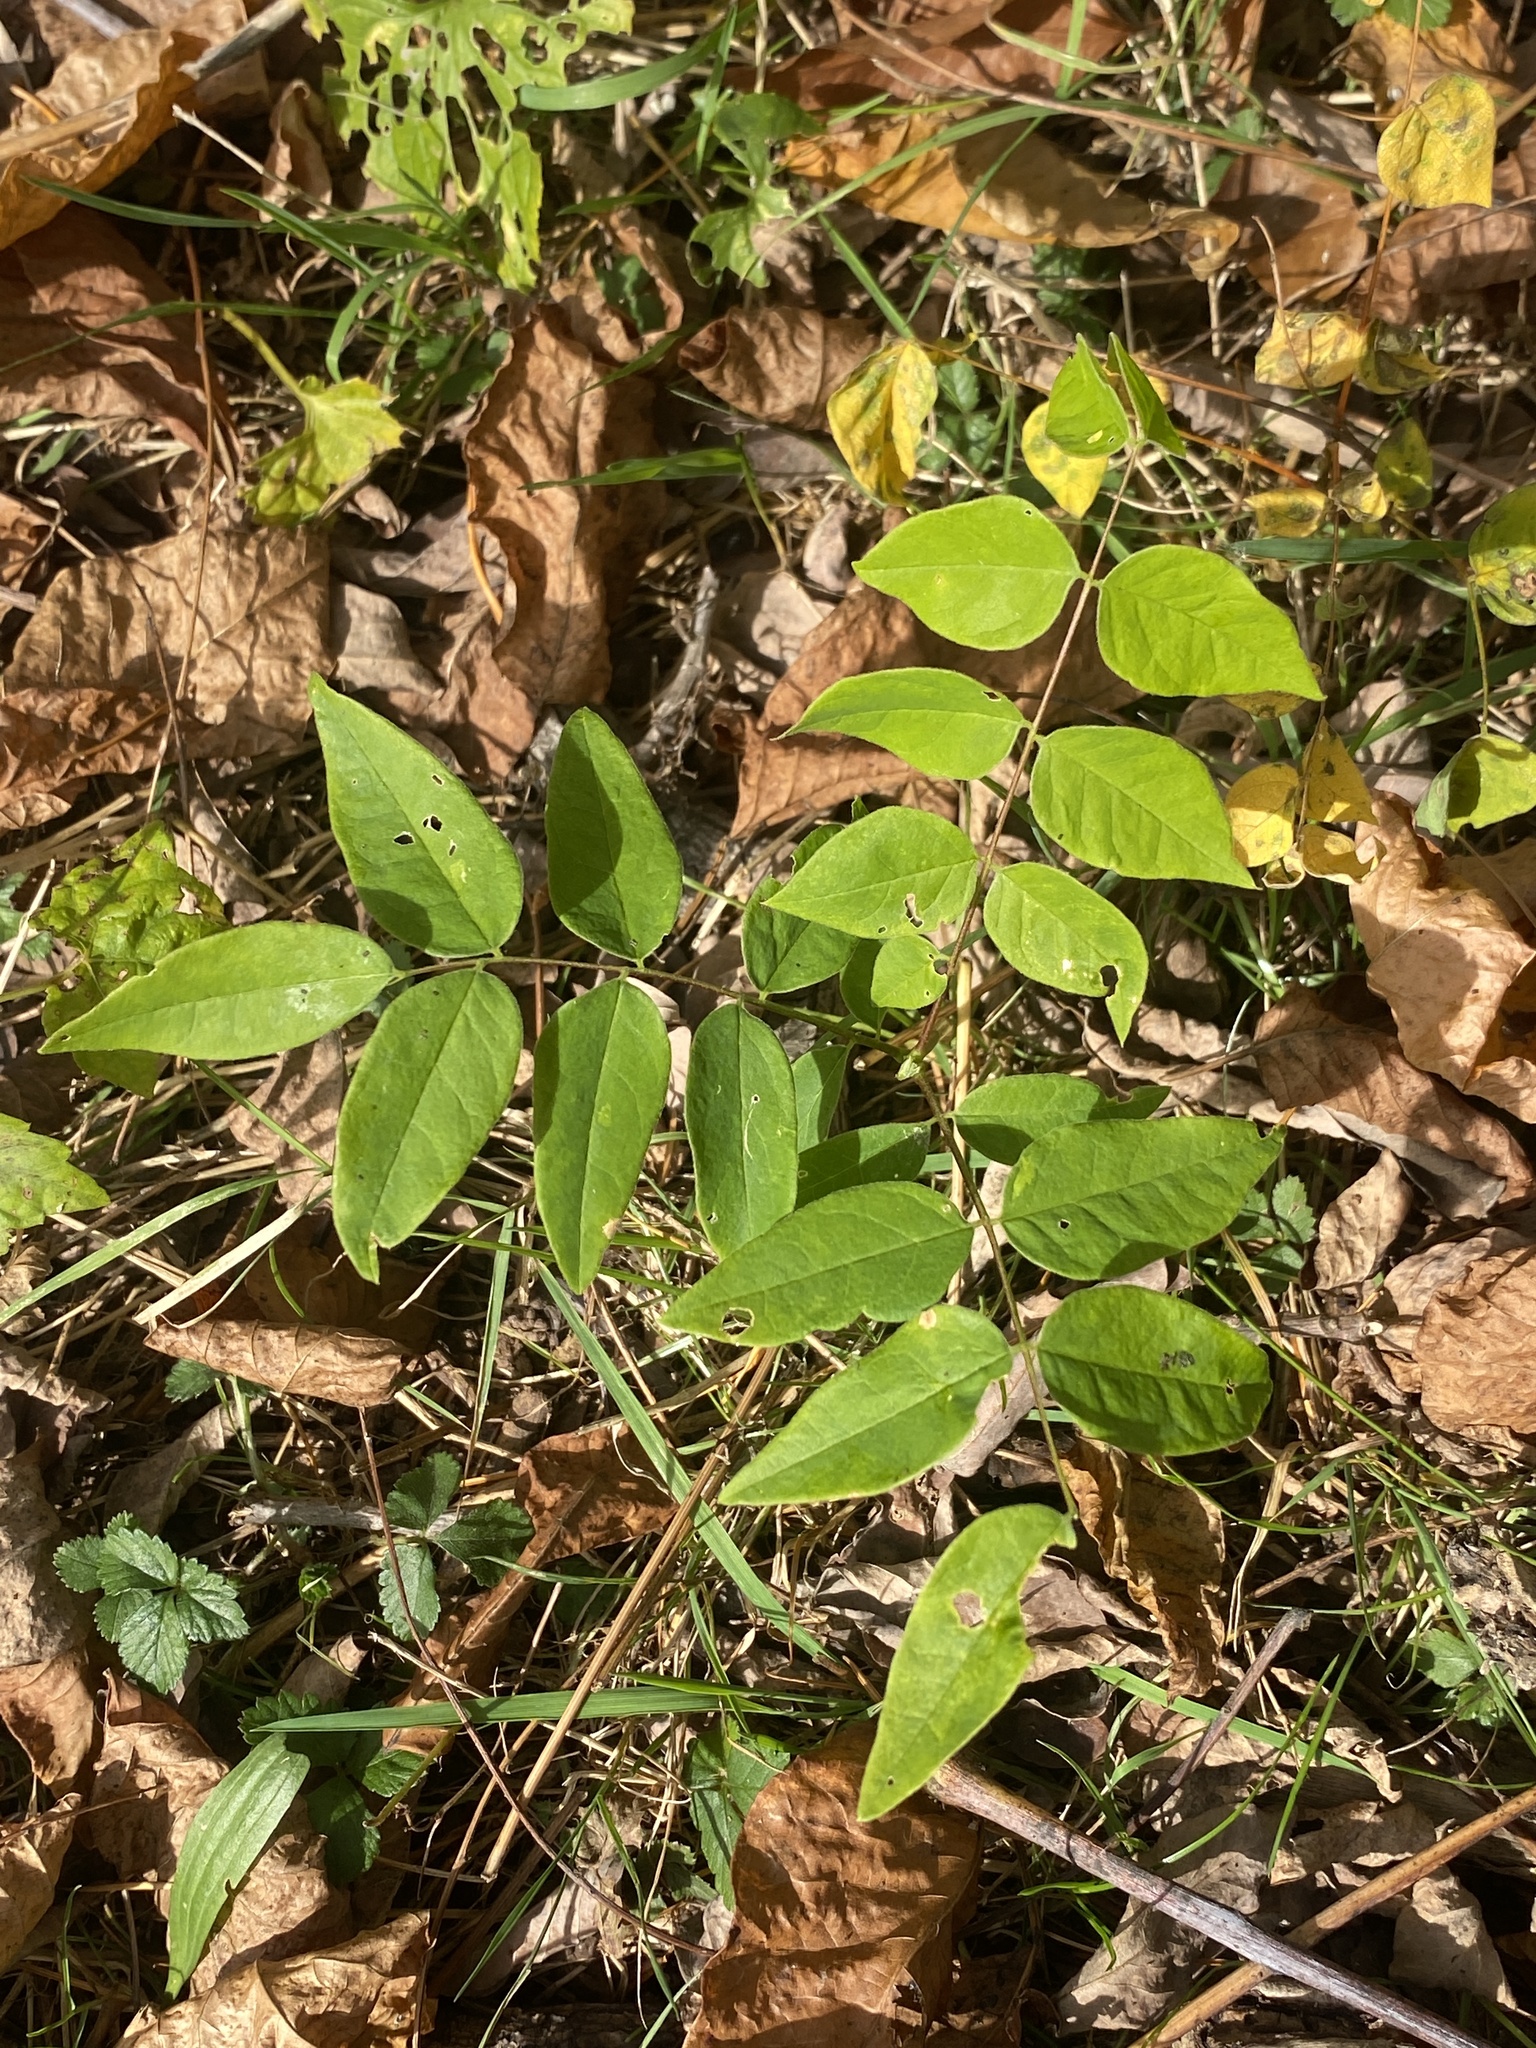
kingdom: Plantae
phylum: Tracheophyta
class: Magnoliopsida
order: Fabales
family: Fabaceae
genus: Gymnocladus
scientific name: Gymnocladus dioicus
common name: Kentucky coffee-tree
